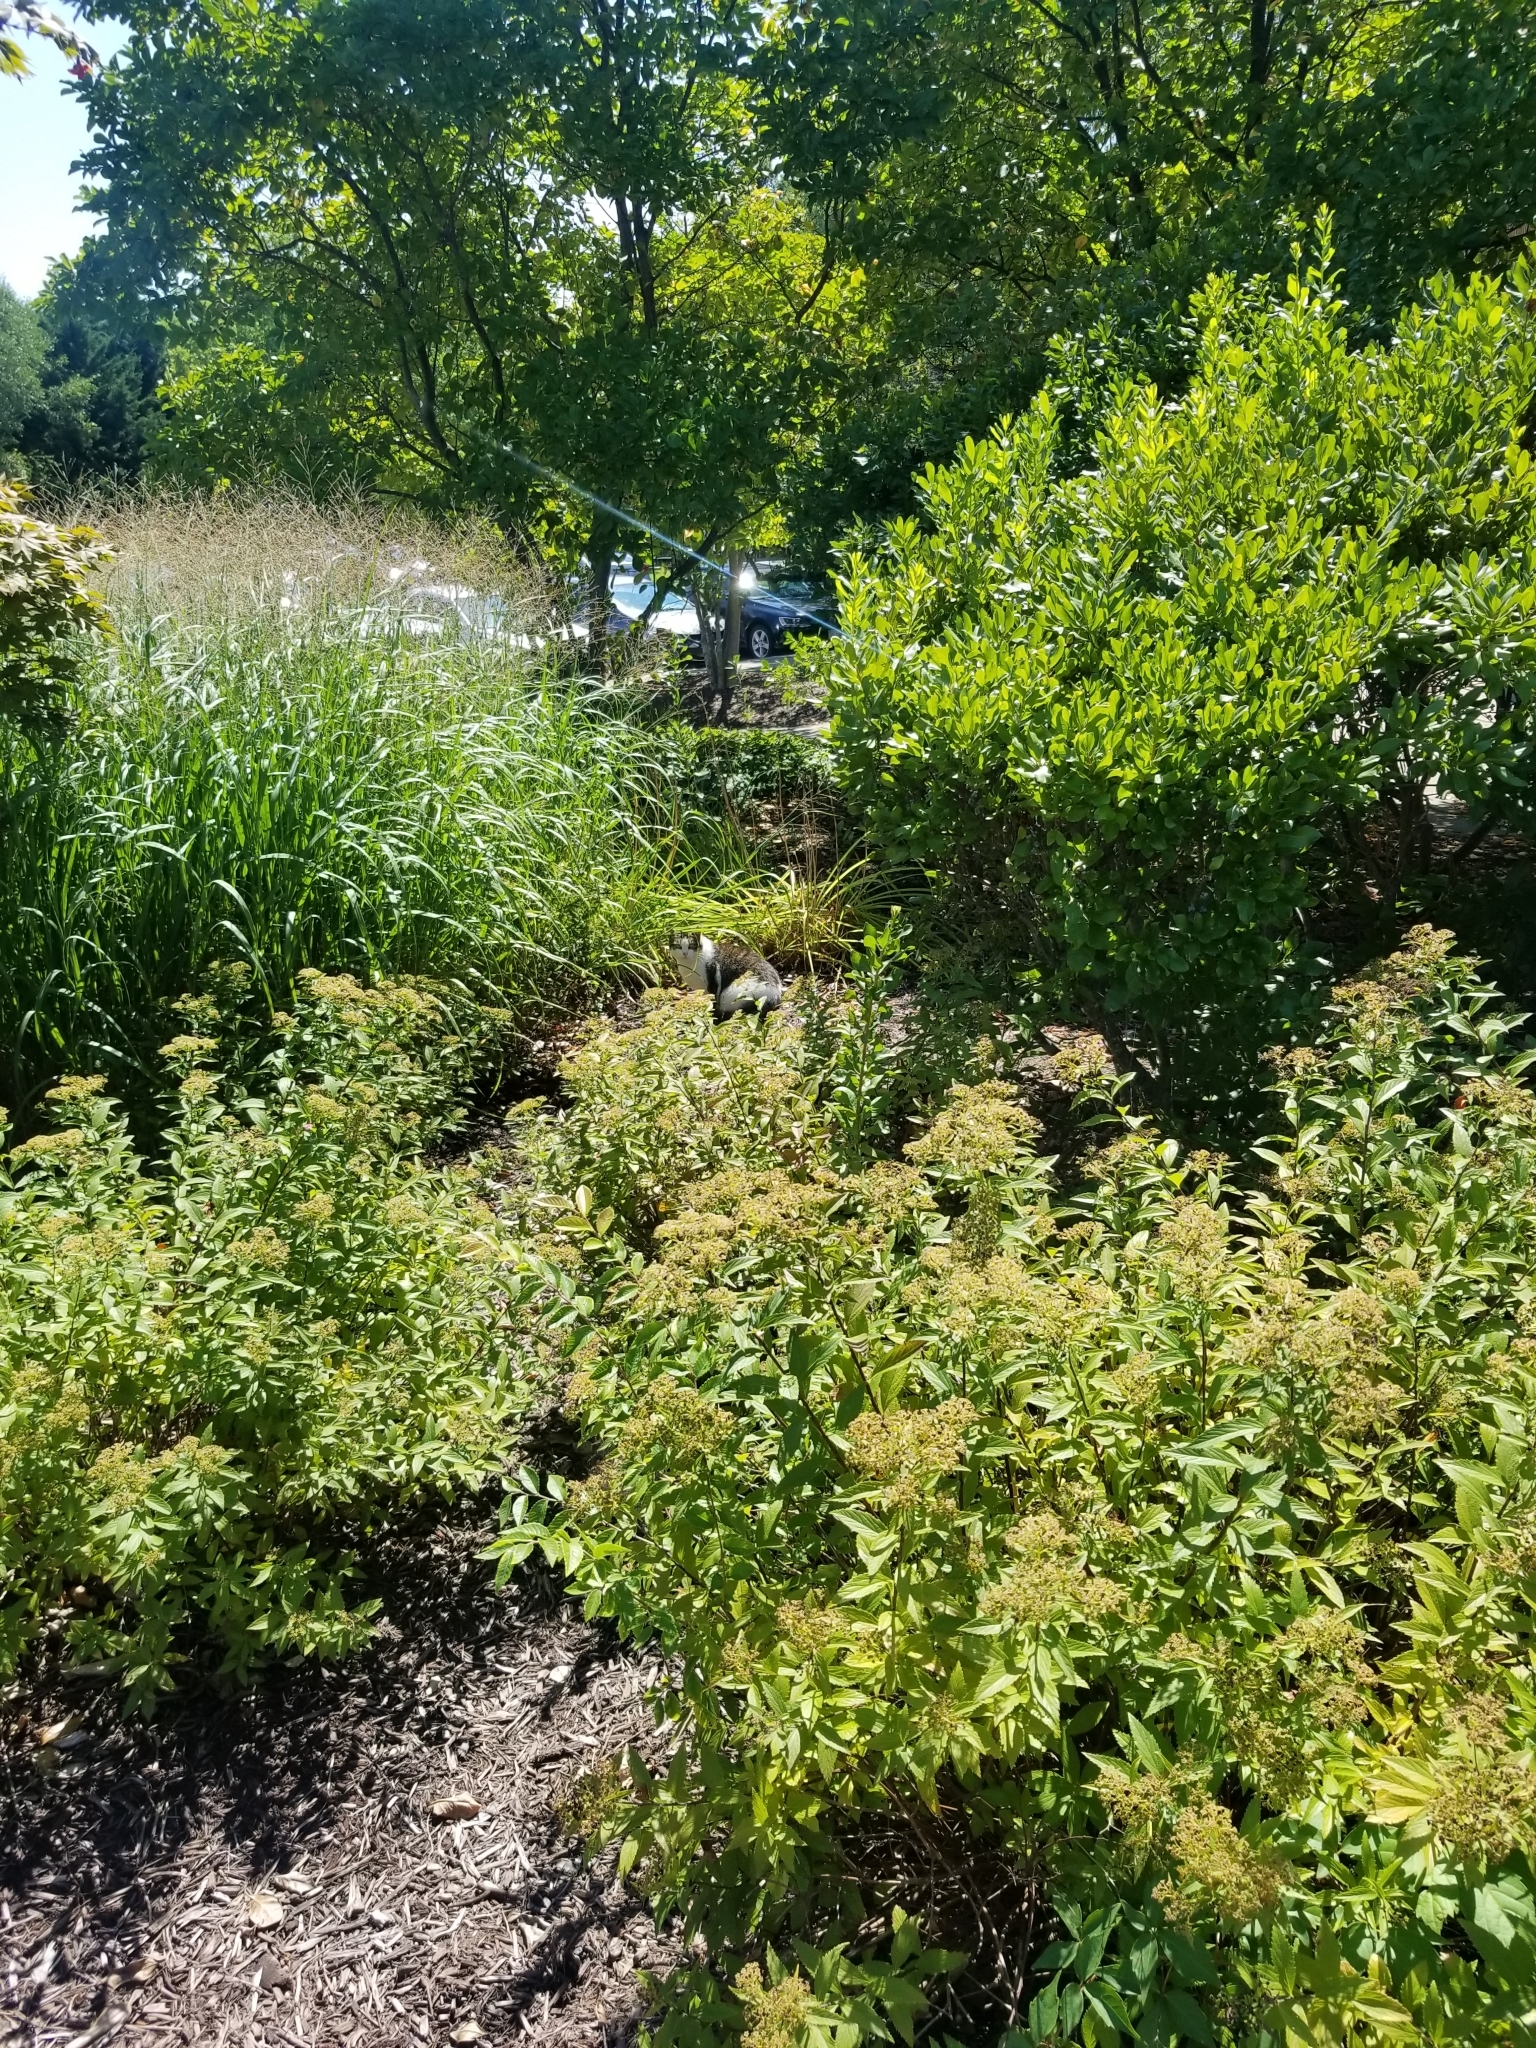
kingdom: Animalia
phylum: Chordata
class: Mammalia
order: Carnivora
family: Felidae
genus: Felis
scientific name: Felis catus
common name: Domestic cat
